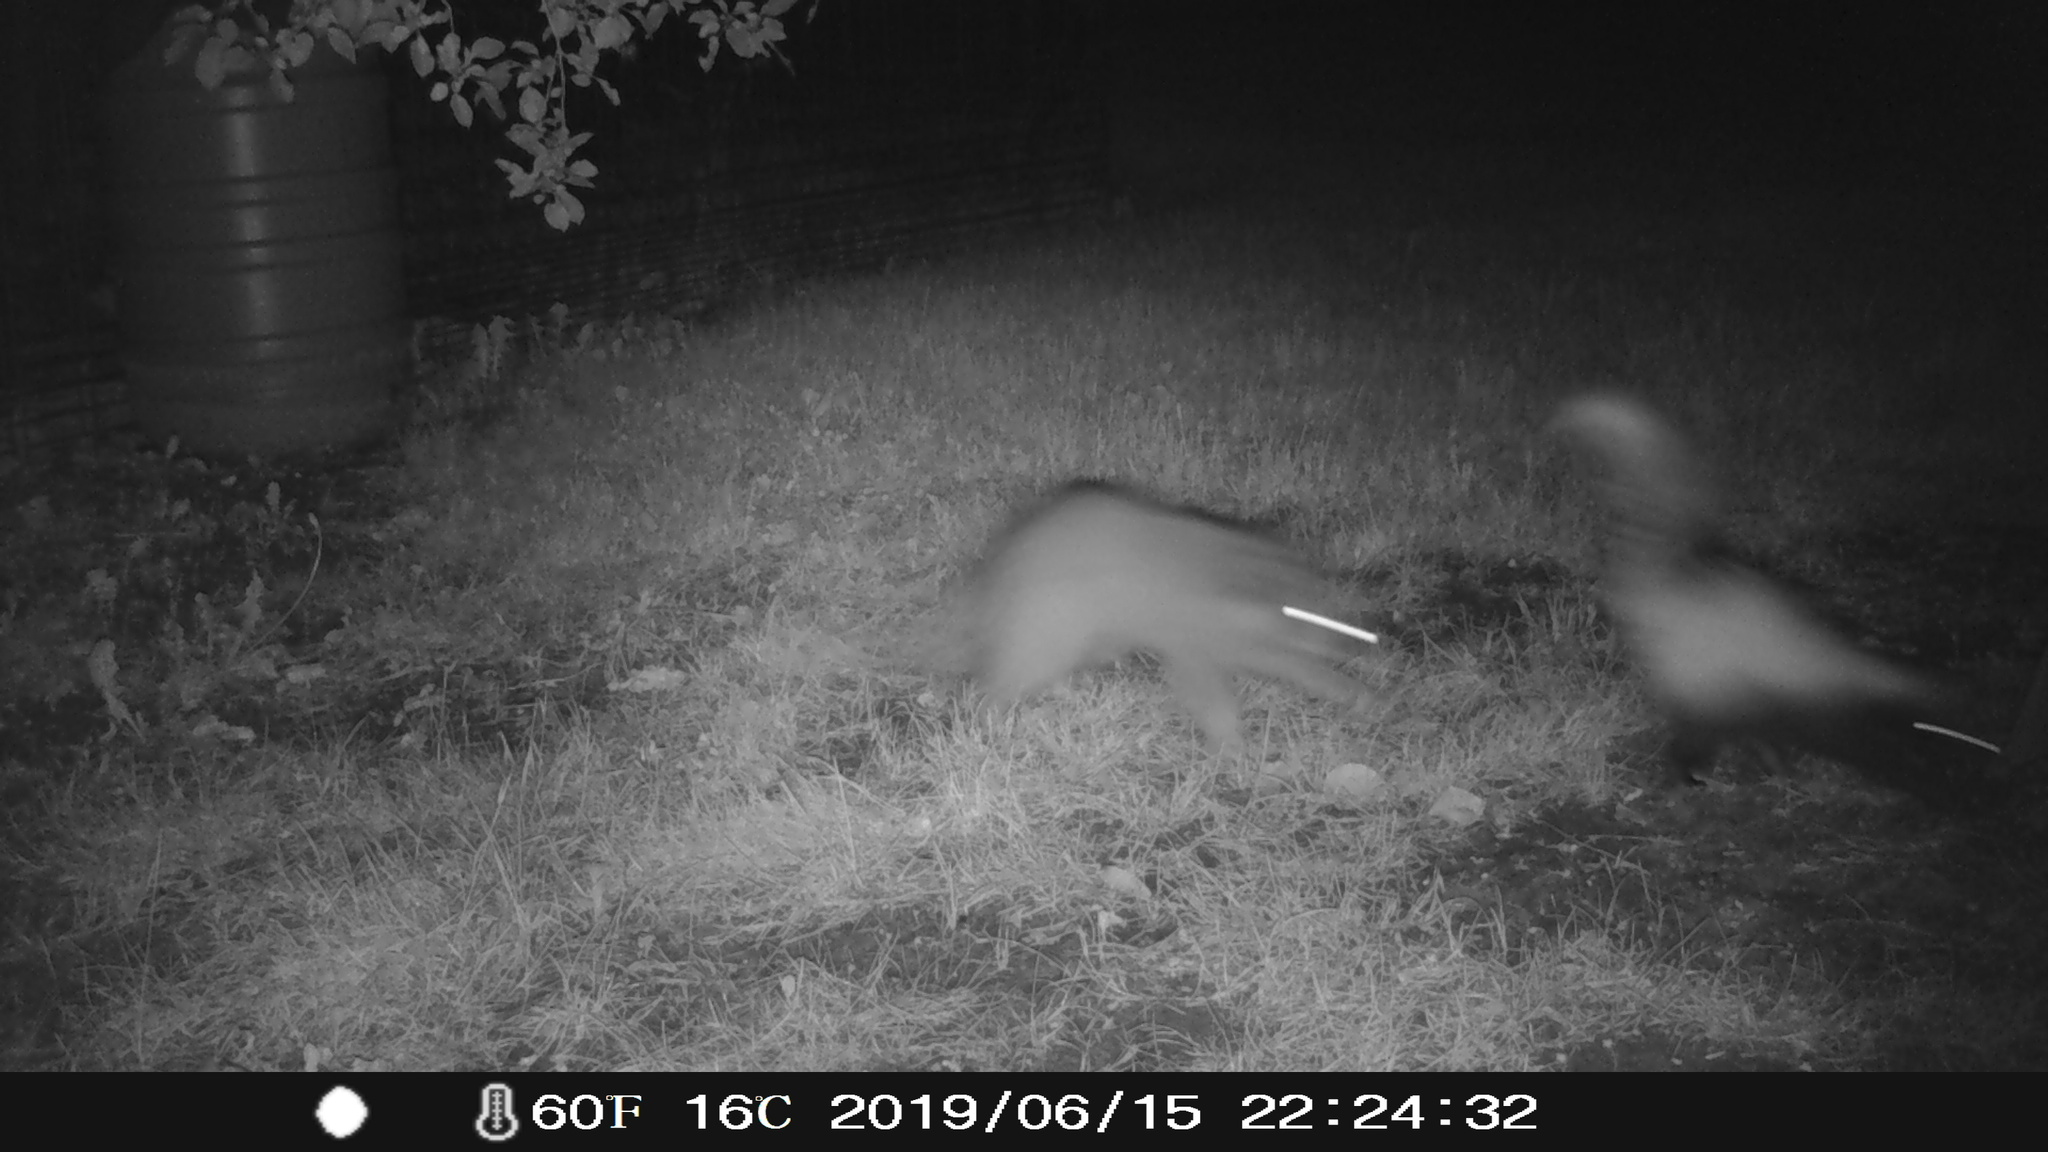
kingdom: Animalia
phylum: Chordata
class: Mammalia
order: Carnivora
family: Procyonidae
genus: Procyon
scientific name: Procyon lotor
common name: Raccoon
